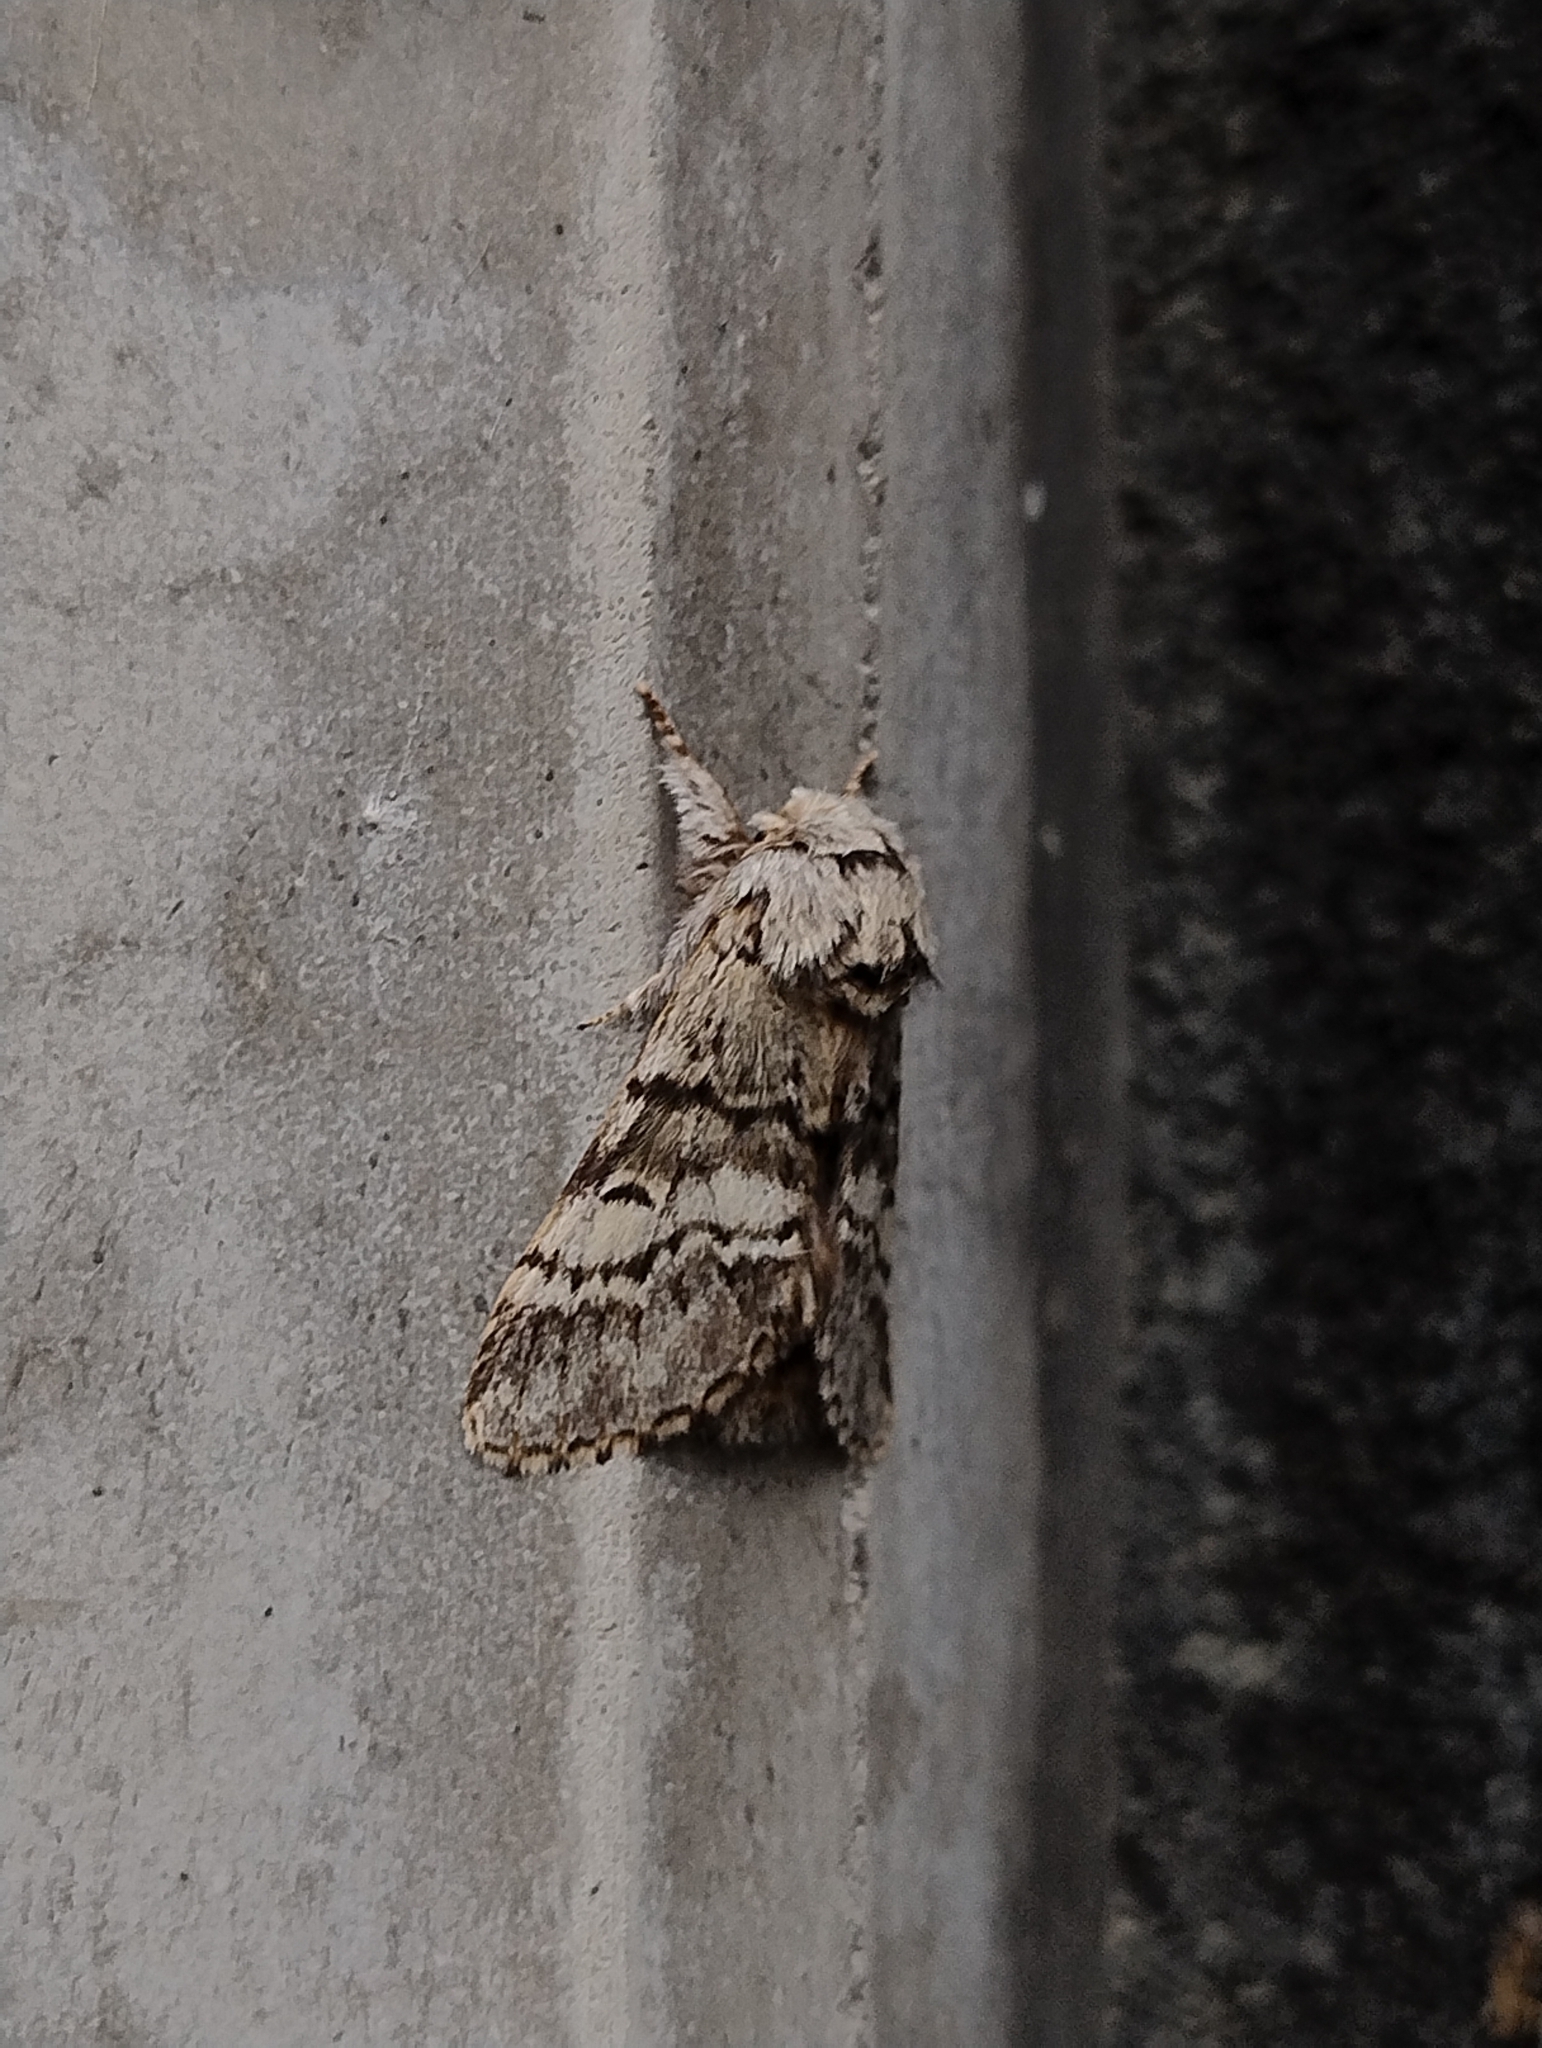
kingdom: Animalia
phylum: Arthropoda
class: Insecta
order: Lepidoptera
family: Notodontidae
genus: Drymonia
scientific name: Drymonia ruficornis
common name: Lunar marbled brown
